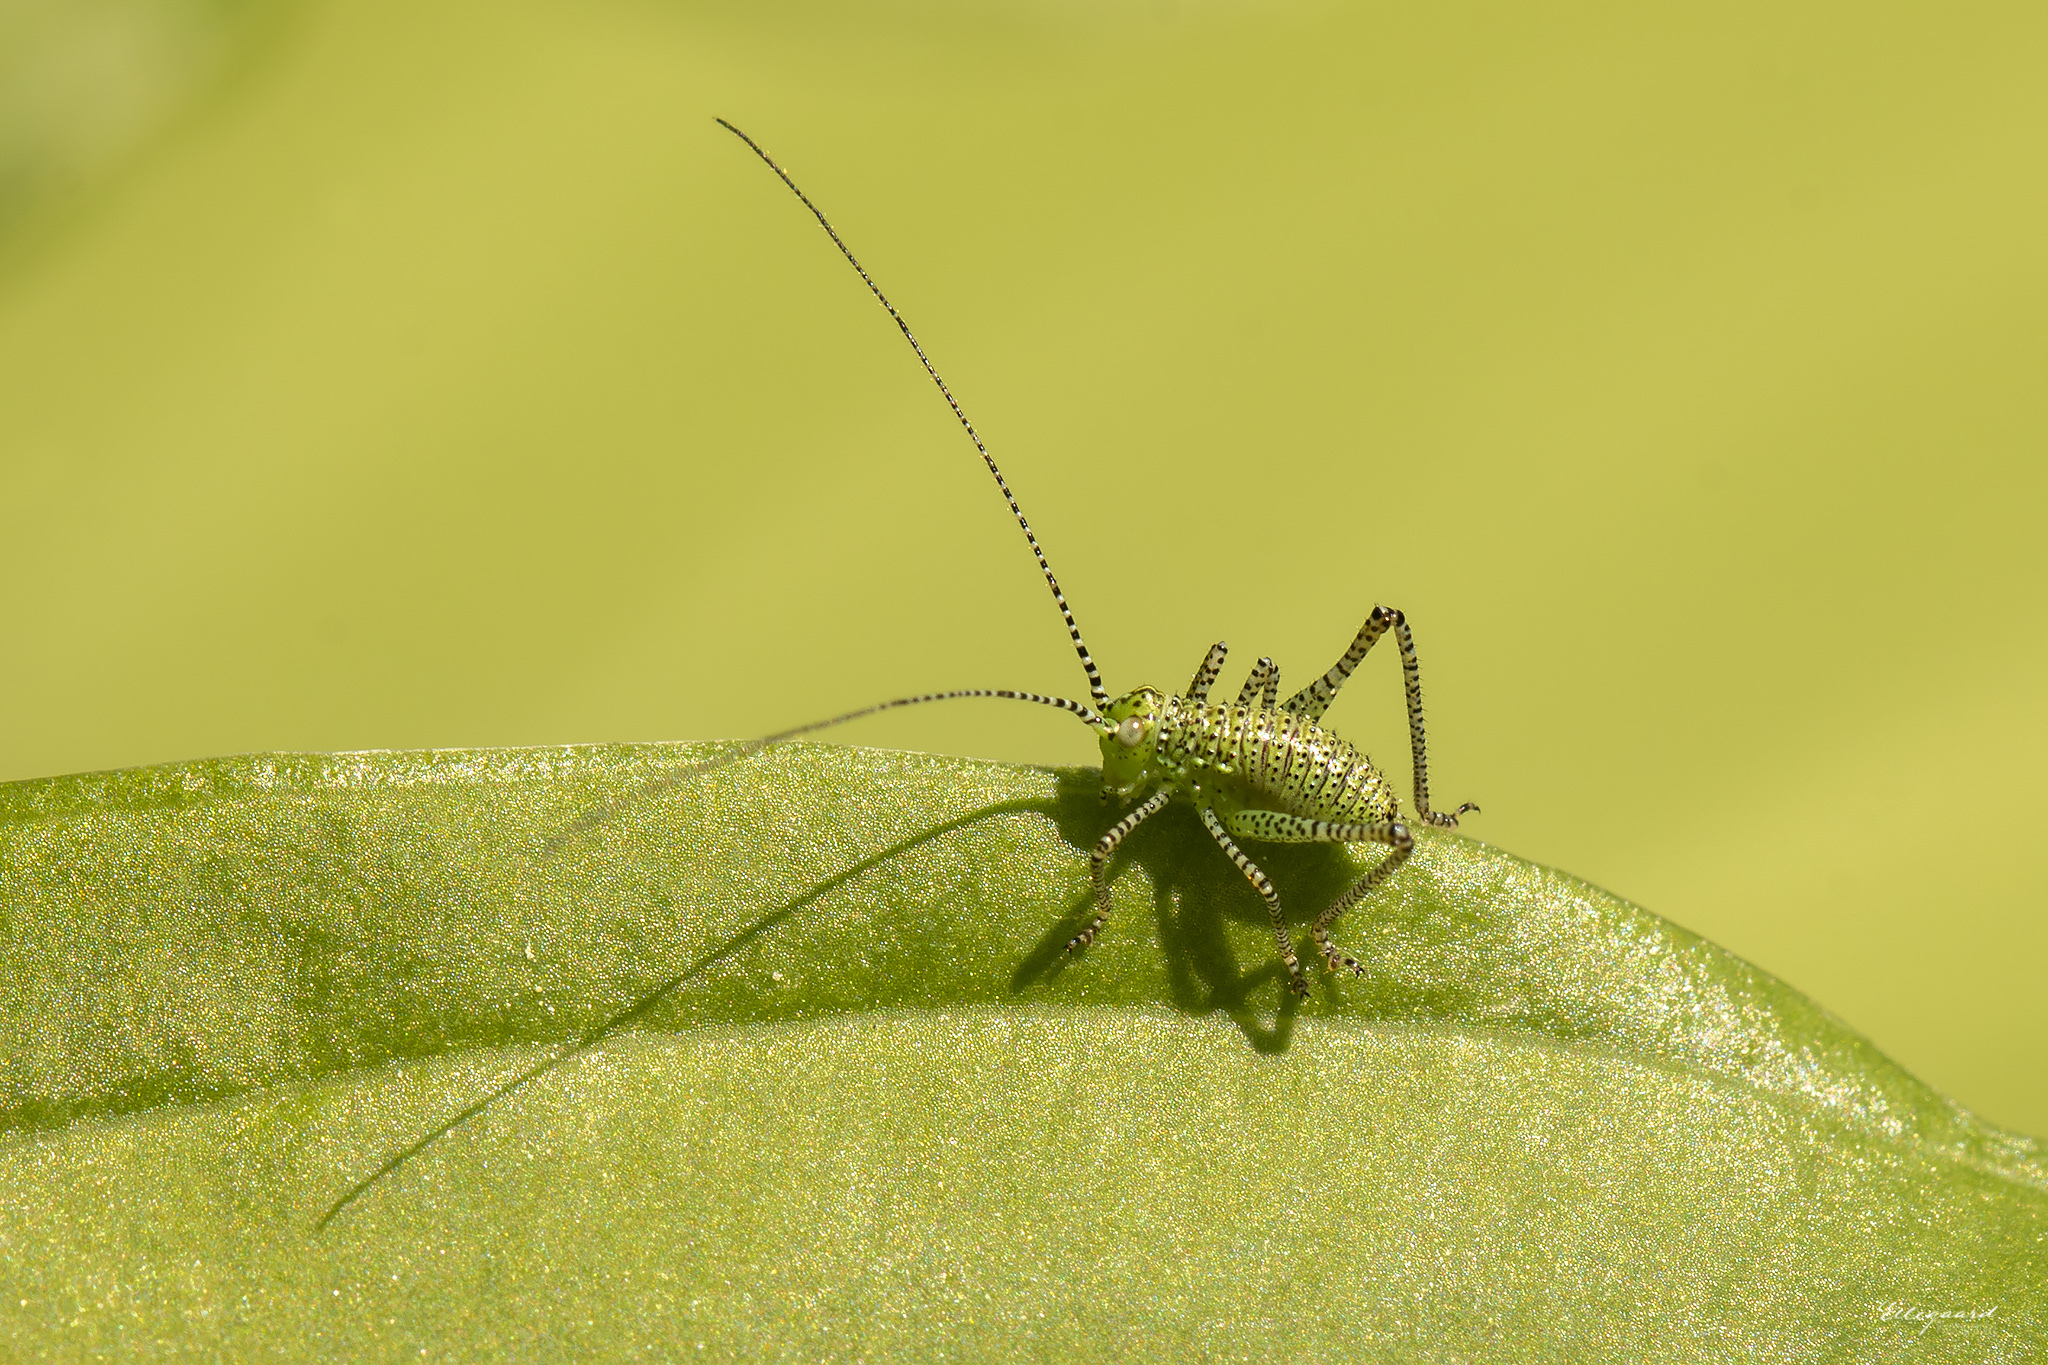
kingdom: Animalia
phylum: Arthropoda
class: Insecta
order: Orthoptera
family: Tettigoniidae
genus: Leptophyes
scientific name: Leptophyes punctatissima
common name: Speckled bush-cricket
